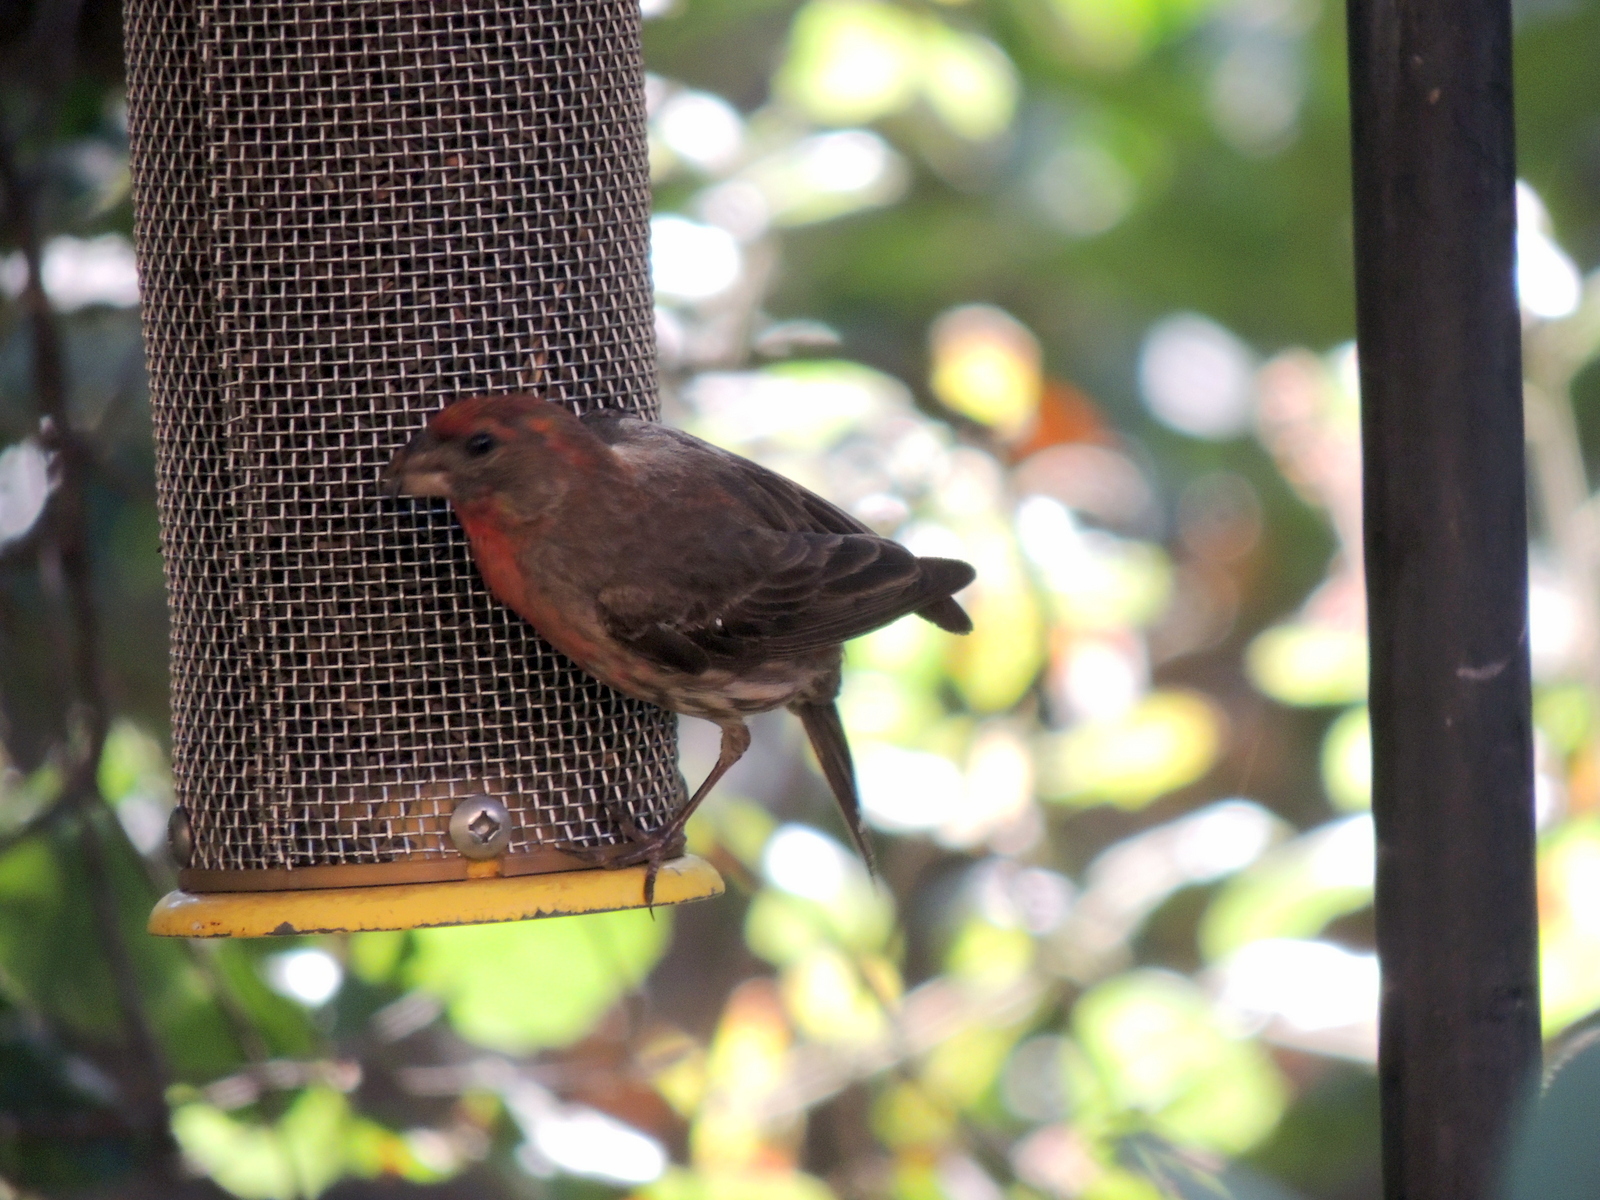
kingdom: Animalia
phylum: Chordata
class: Aves
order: Passeriformes
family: Fringillidae
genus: Haemorhous
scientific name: Haemorhous mexicanus
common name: House finch
